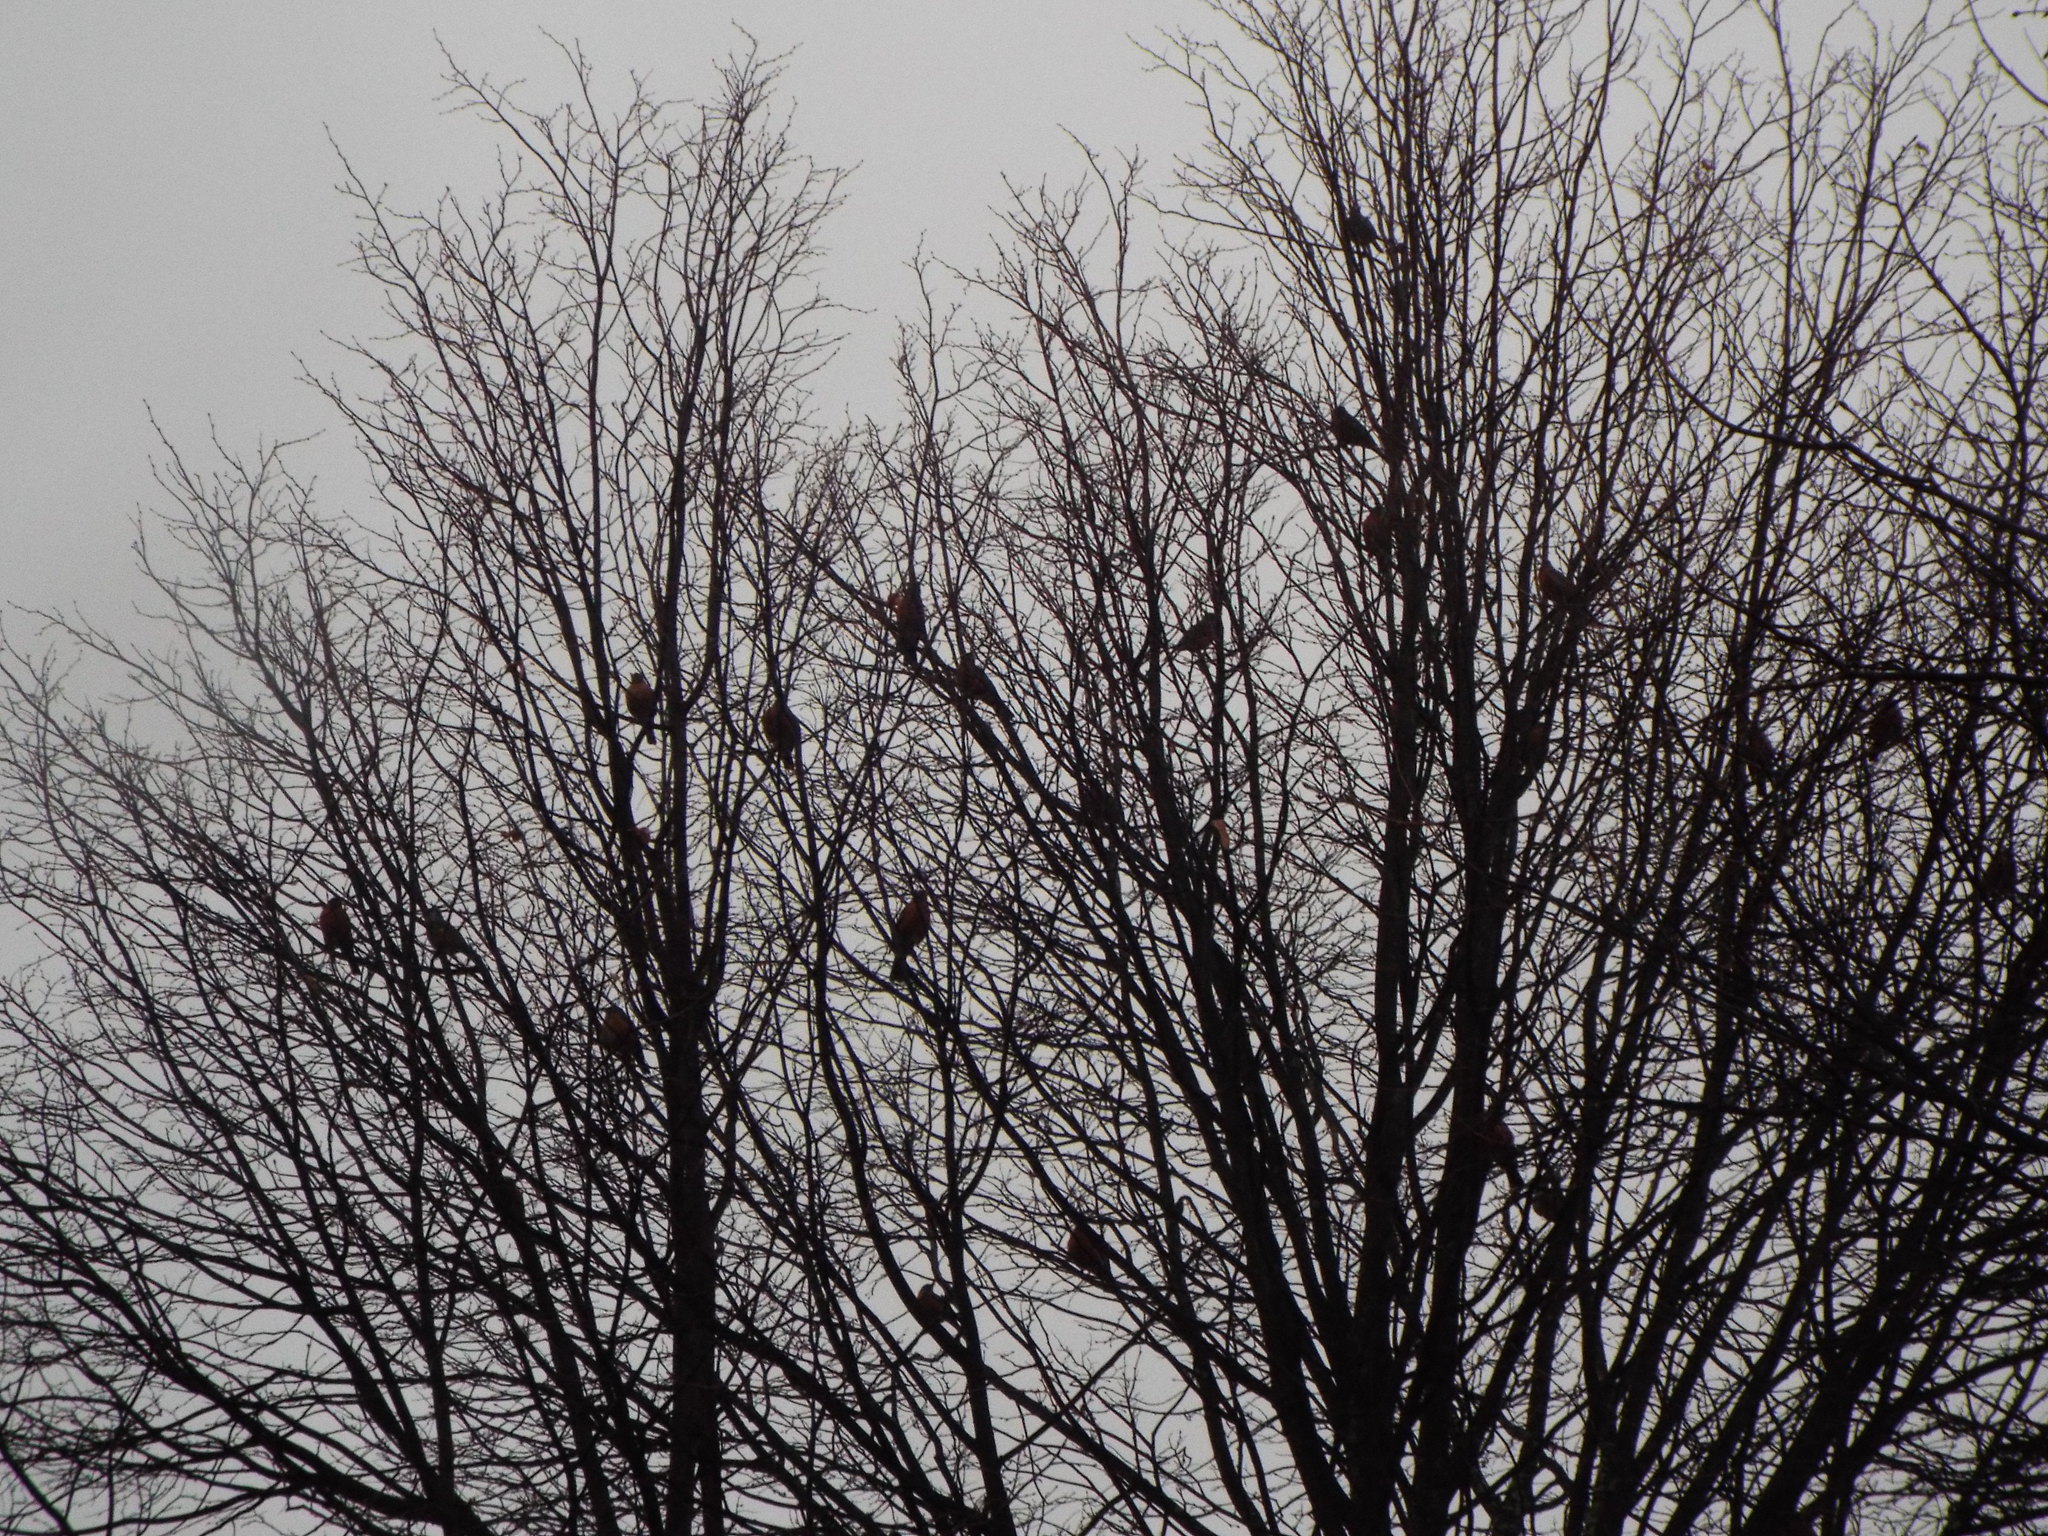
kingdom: Animalia
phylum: Chordata
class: Aves
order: Passeriformes
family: Turdidae
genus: Turdus
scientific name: Turdus migratorius
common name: American robin
